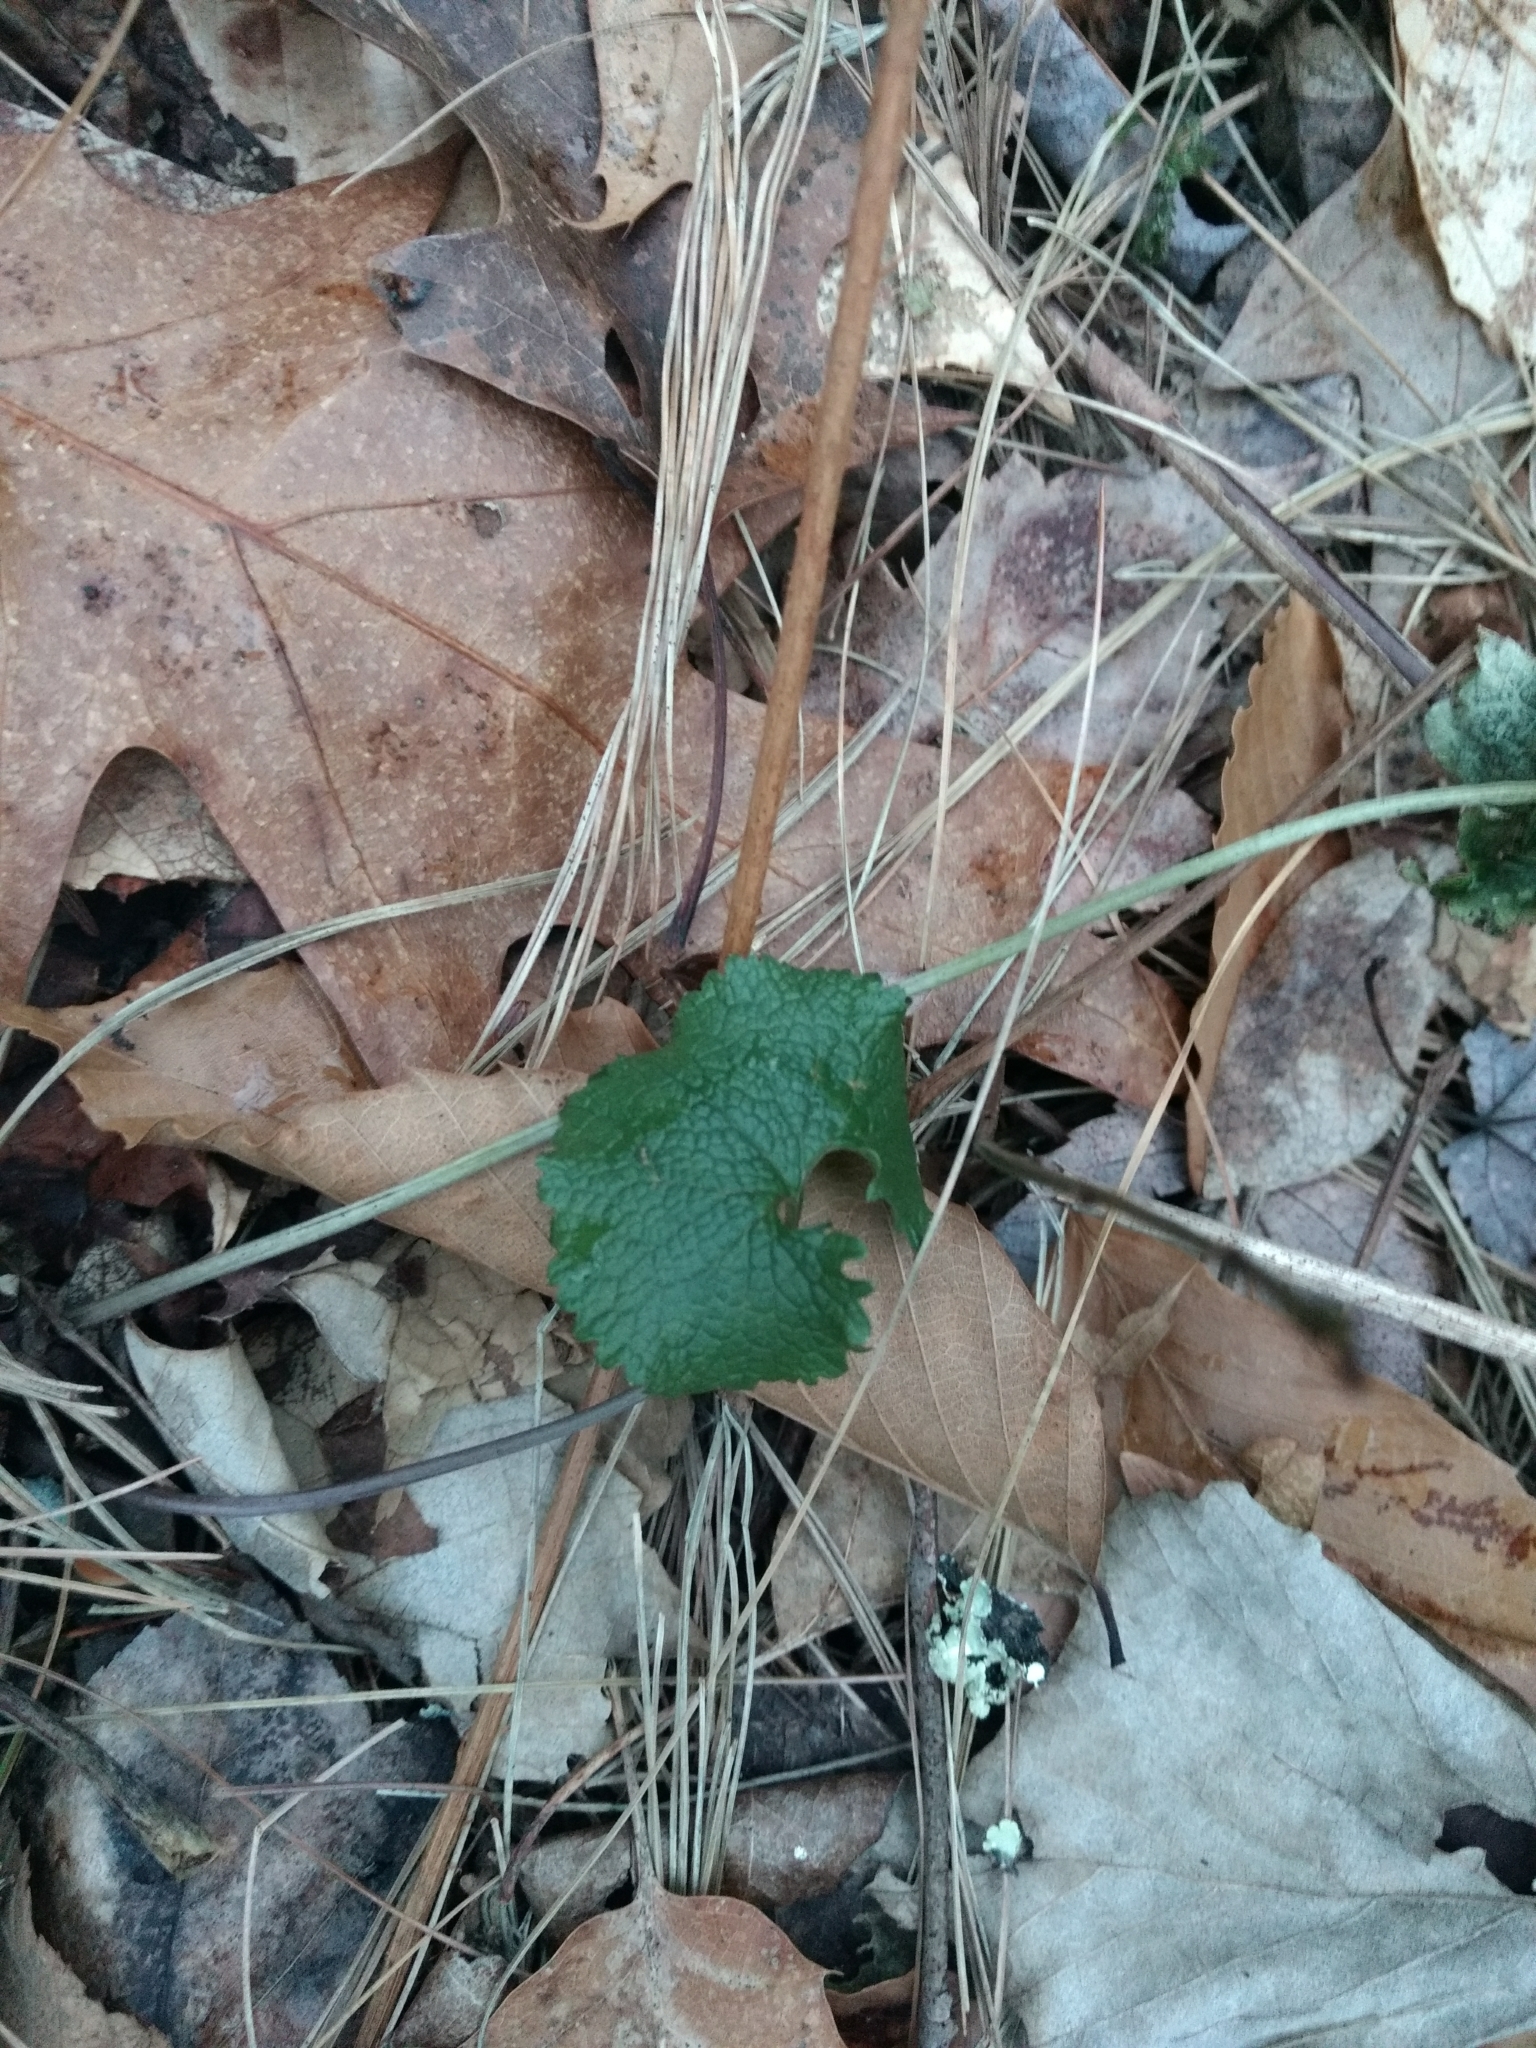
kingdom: Plantae
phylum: Tracheophyta
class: Magnoliopsida
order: Brassicales
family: Brassicaceae
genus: Alliaria
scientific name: Alliaria petiolata
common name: Garlic mustard
